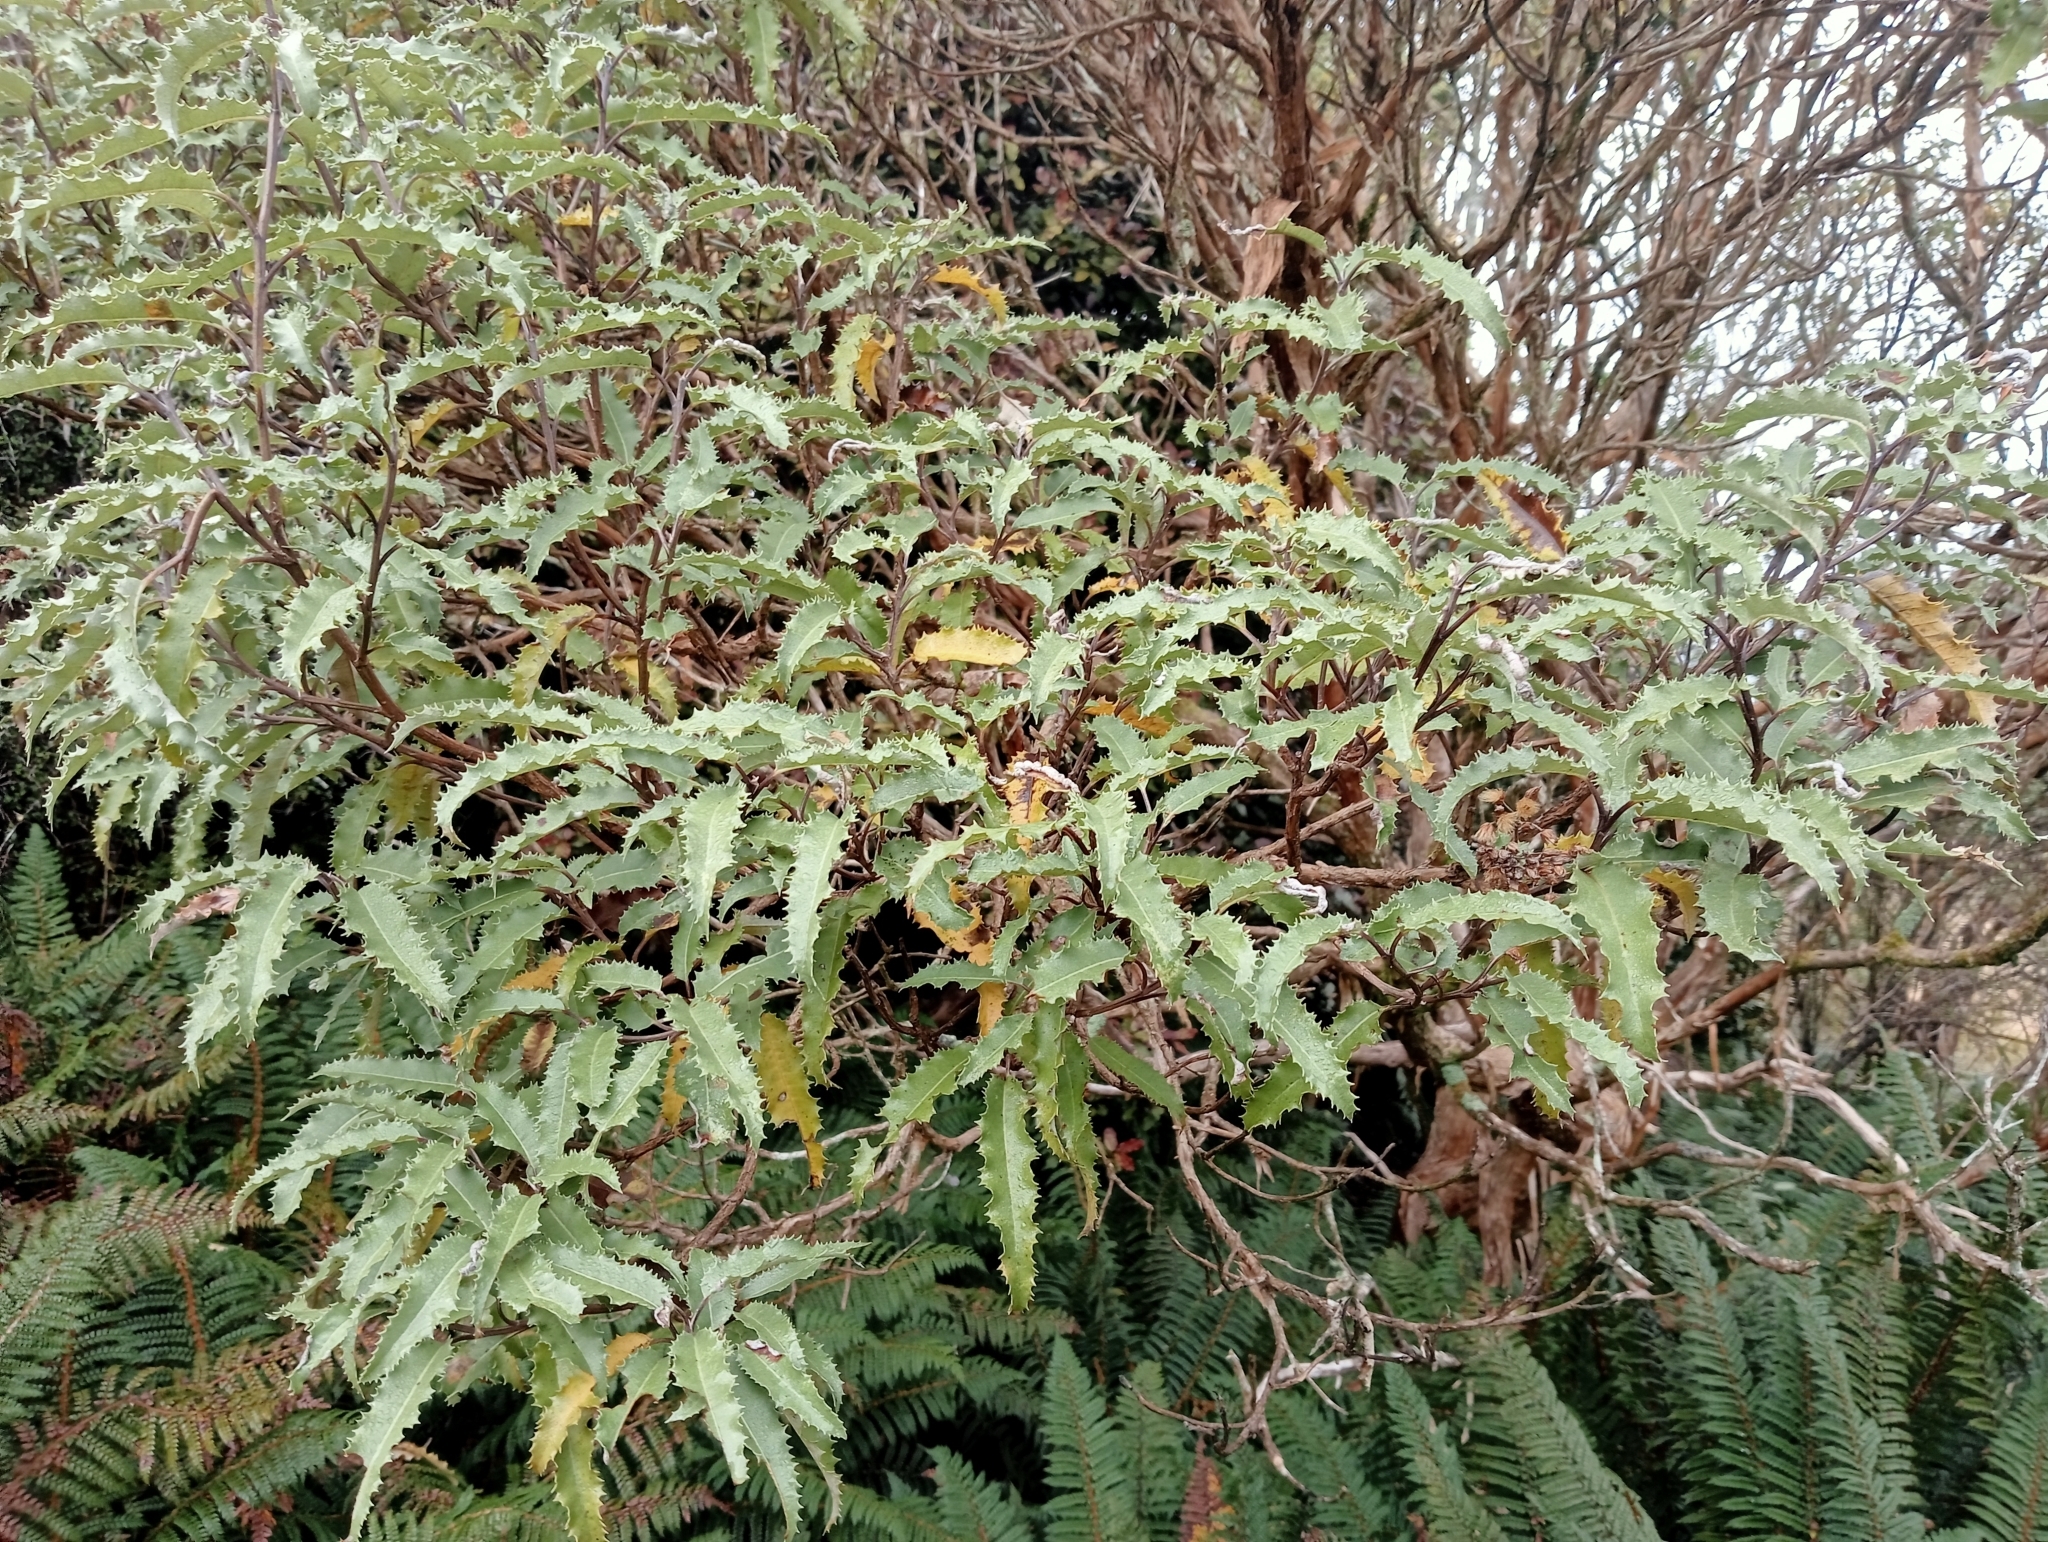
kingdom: Plantae
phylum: Tracheophyta
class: Magnoliopsida
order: Asterales
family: Asteraceae
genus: Olearia
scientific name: Olearia ilicifolia
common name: Maori-holly
